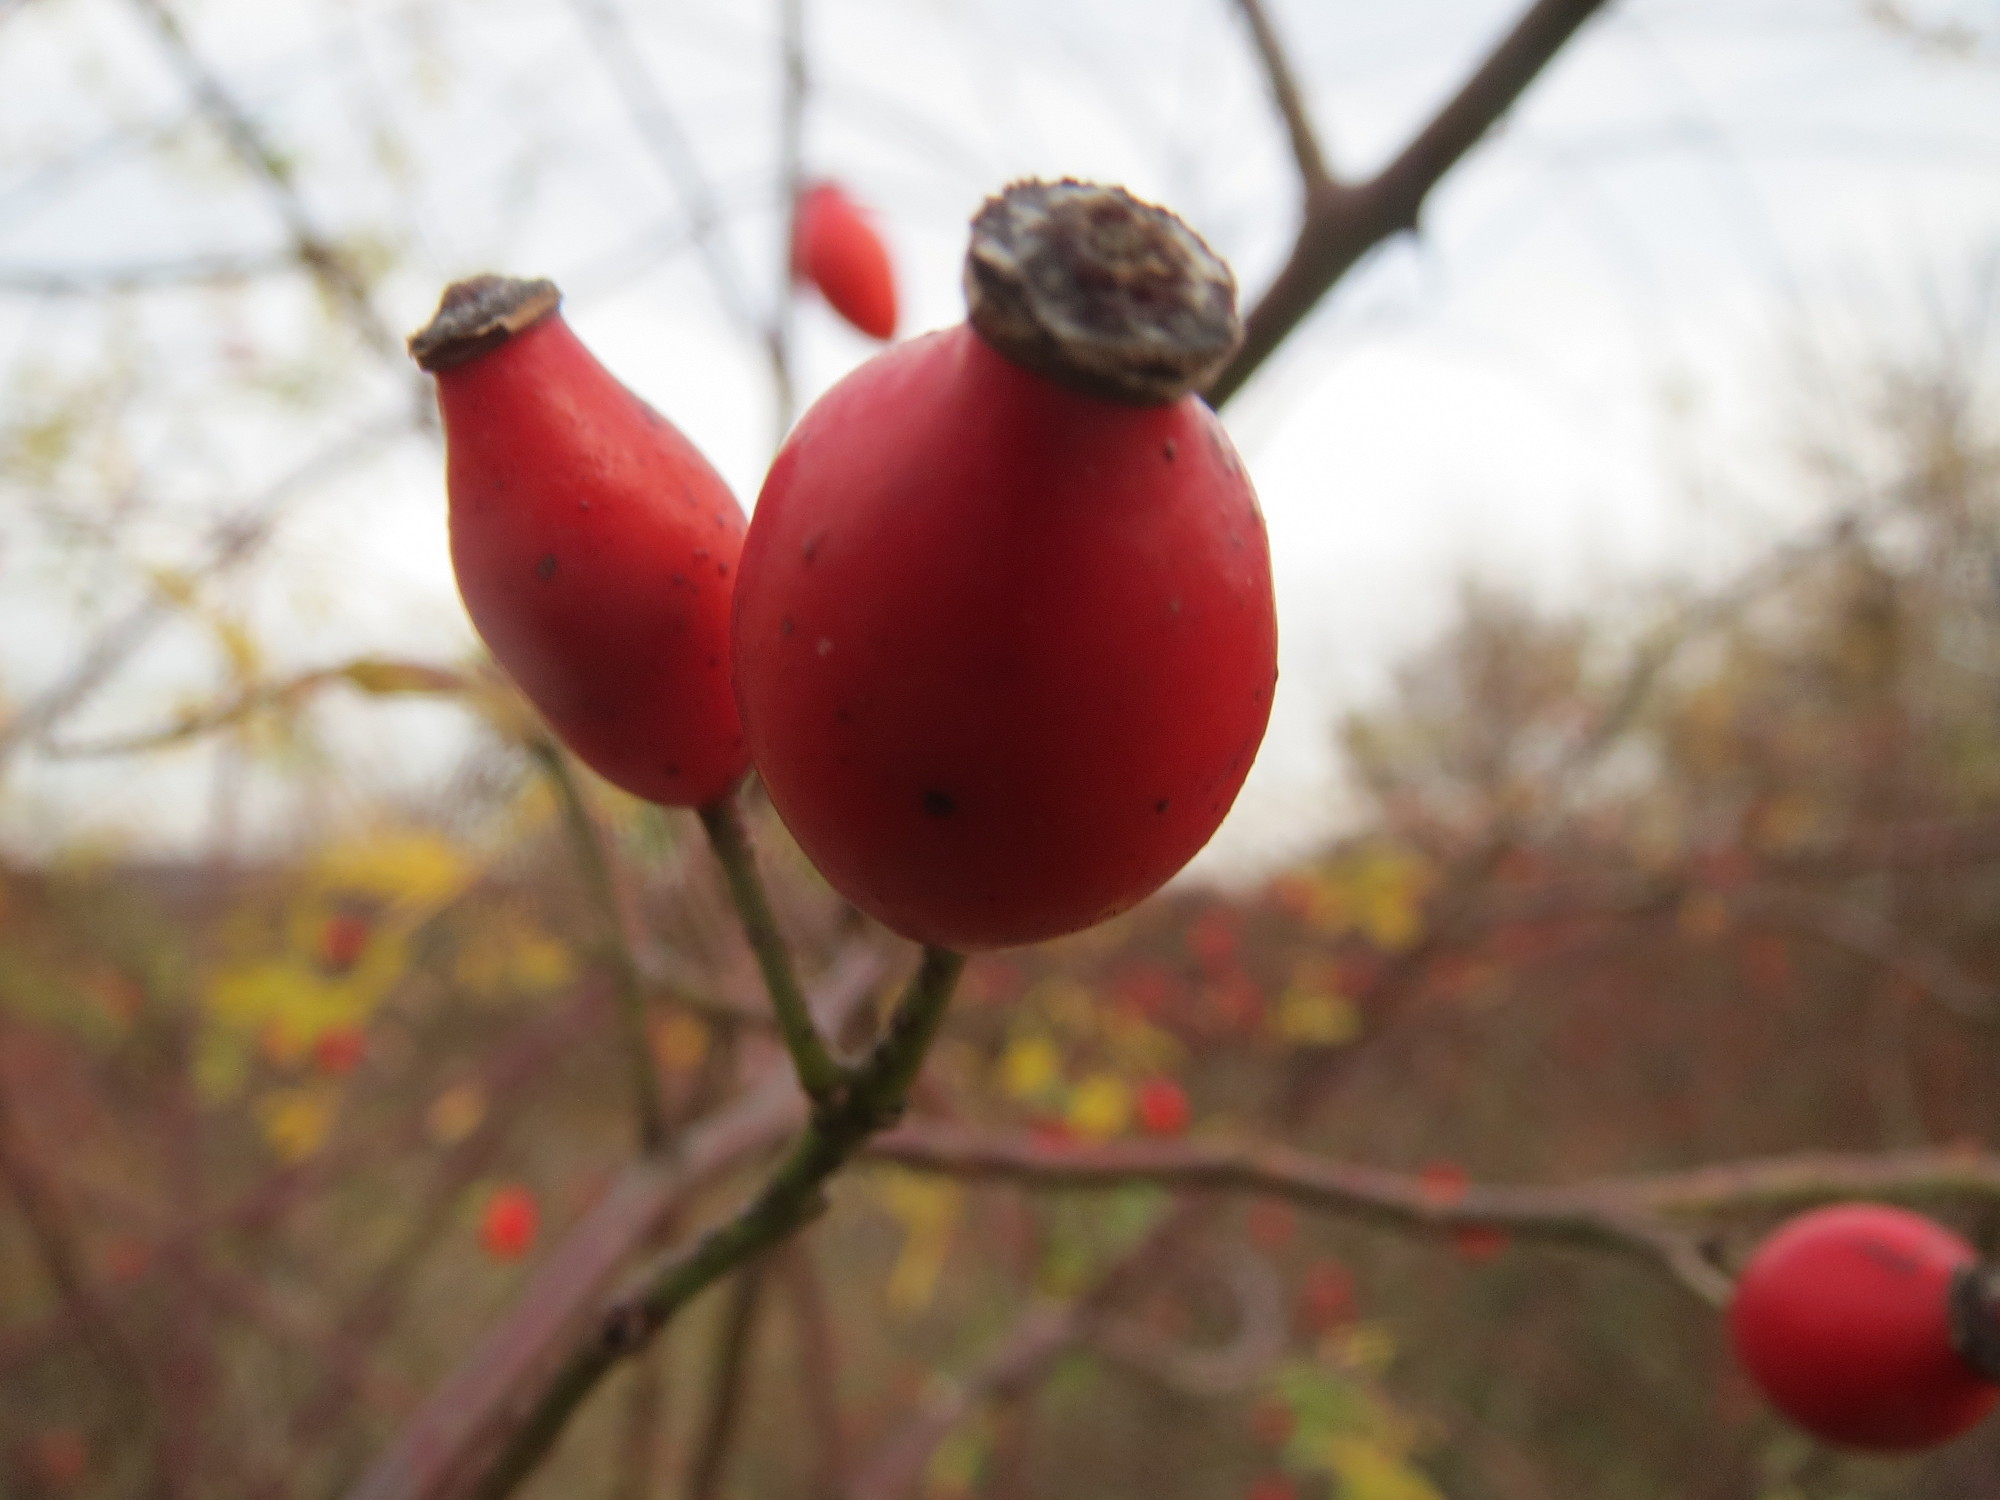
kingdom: Plantae
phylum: Tracheophyta
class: Magnoliopsida
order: Rosales
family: Rosaceae
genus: Rosa
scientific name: Rosa canina
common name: Dog rose
